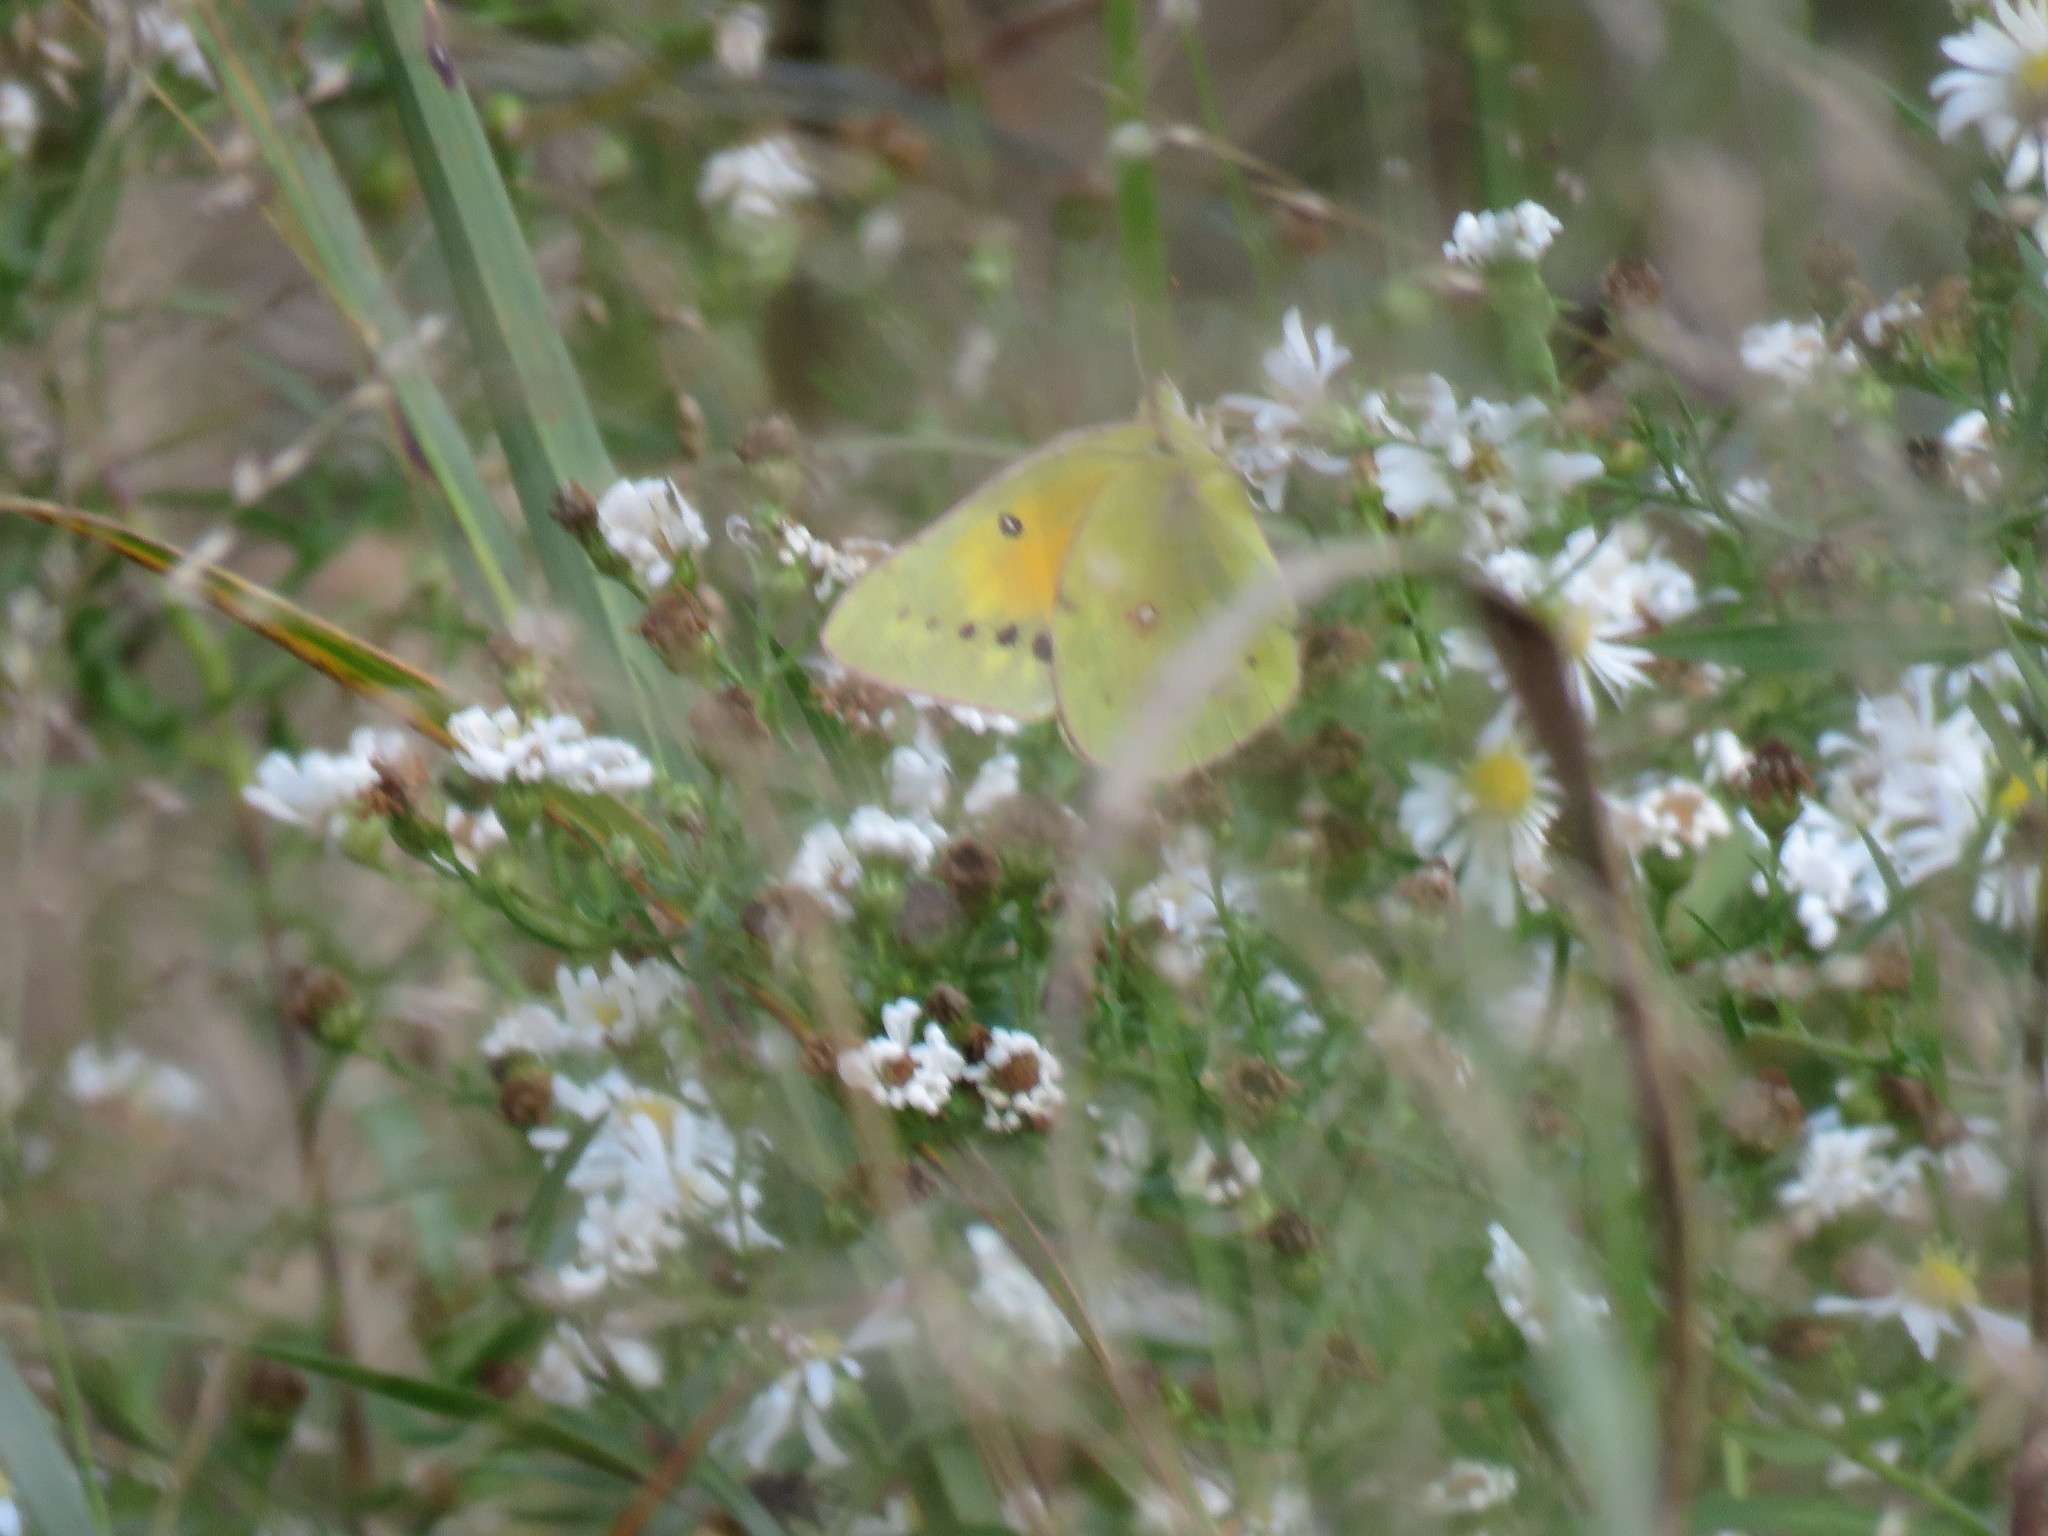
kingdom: Animalia
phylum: Arthropoda
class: Insecta
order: Lepidoptera
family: Pieridae
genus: Colias
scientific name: Colias eurytheme
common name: Alfalfa butterfly
